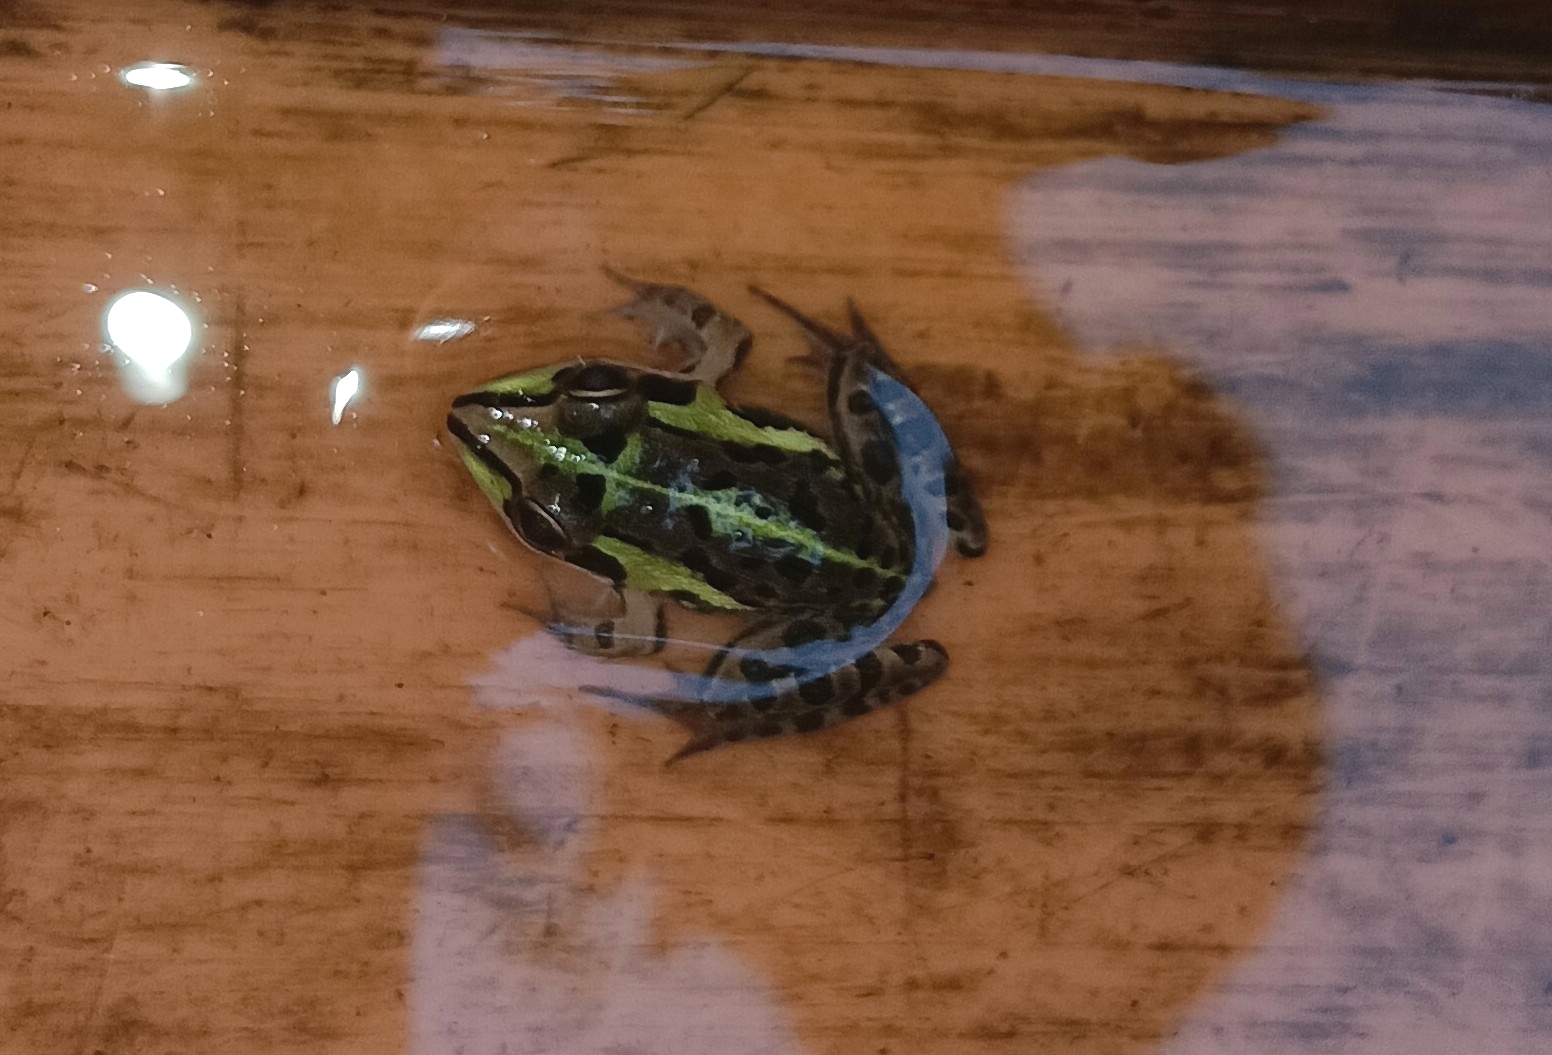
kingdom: Animalia
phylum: Chordata
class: Amphibia
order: Anura
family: Dicroglossidae
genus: Hoplobatrachus
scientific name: Hoplobatrachus tigerinus
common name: Indian bullfrog
